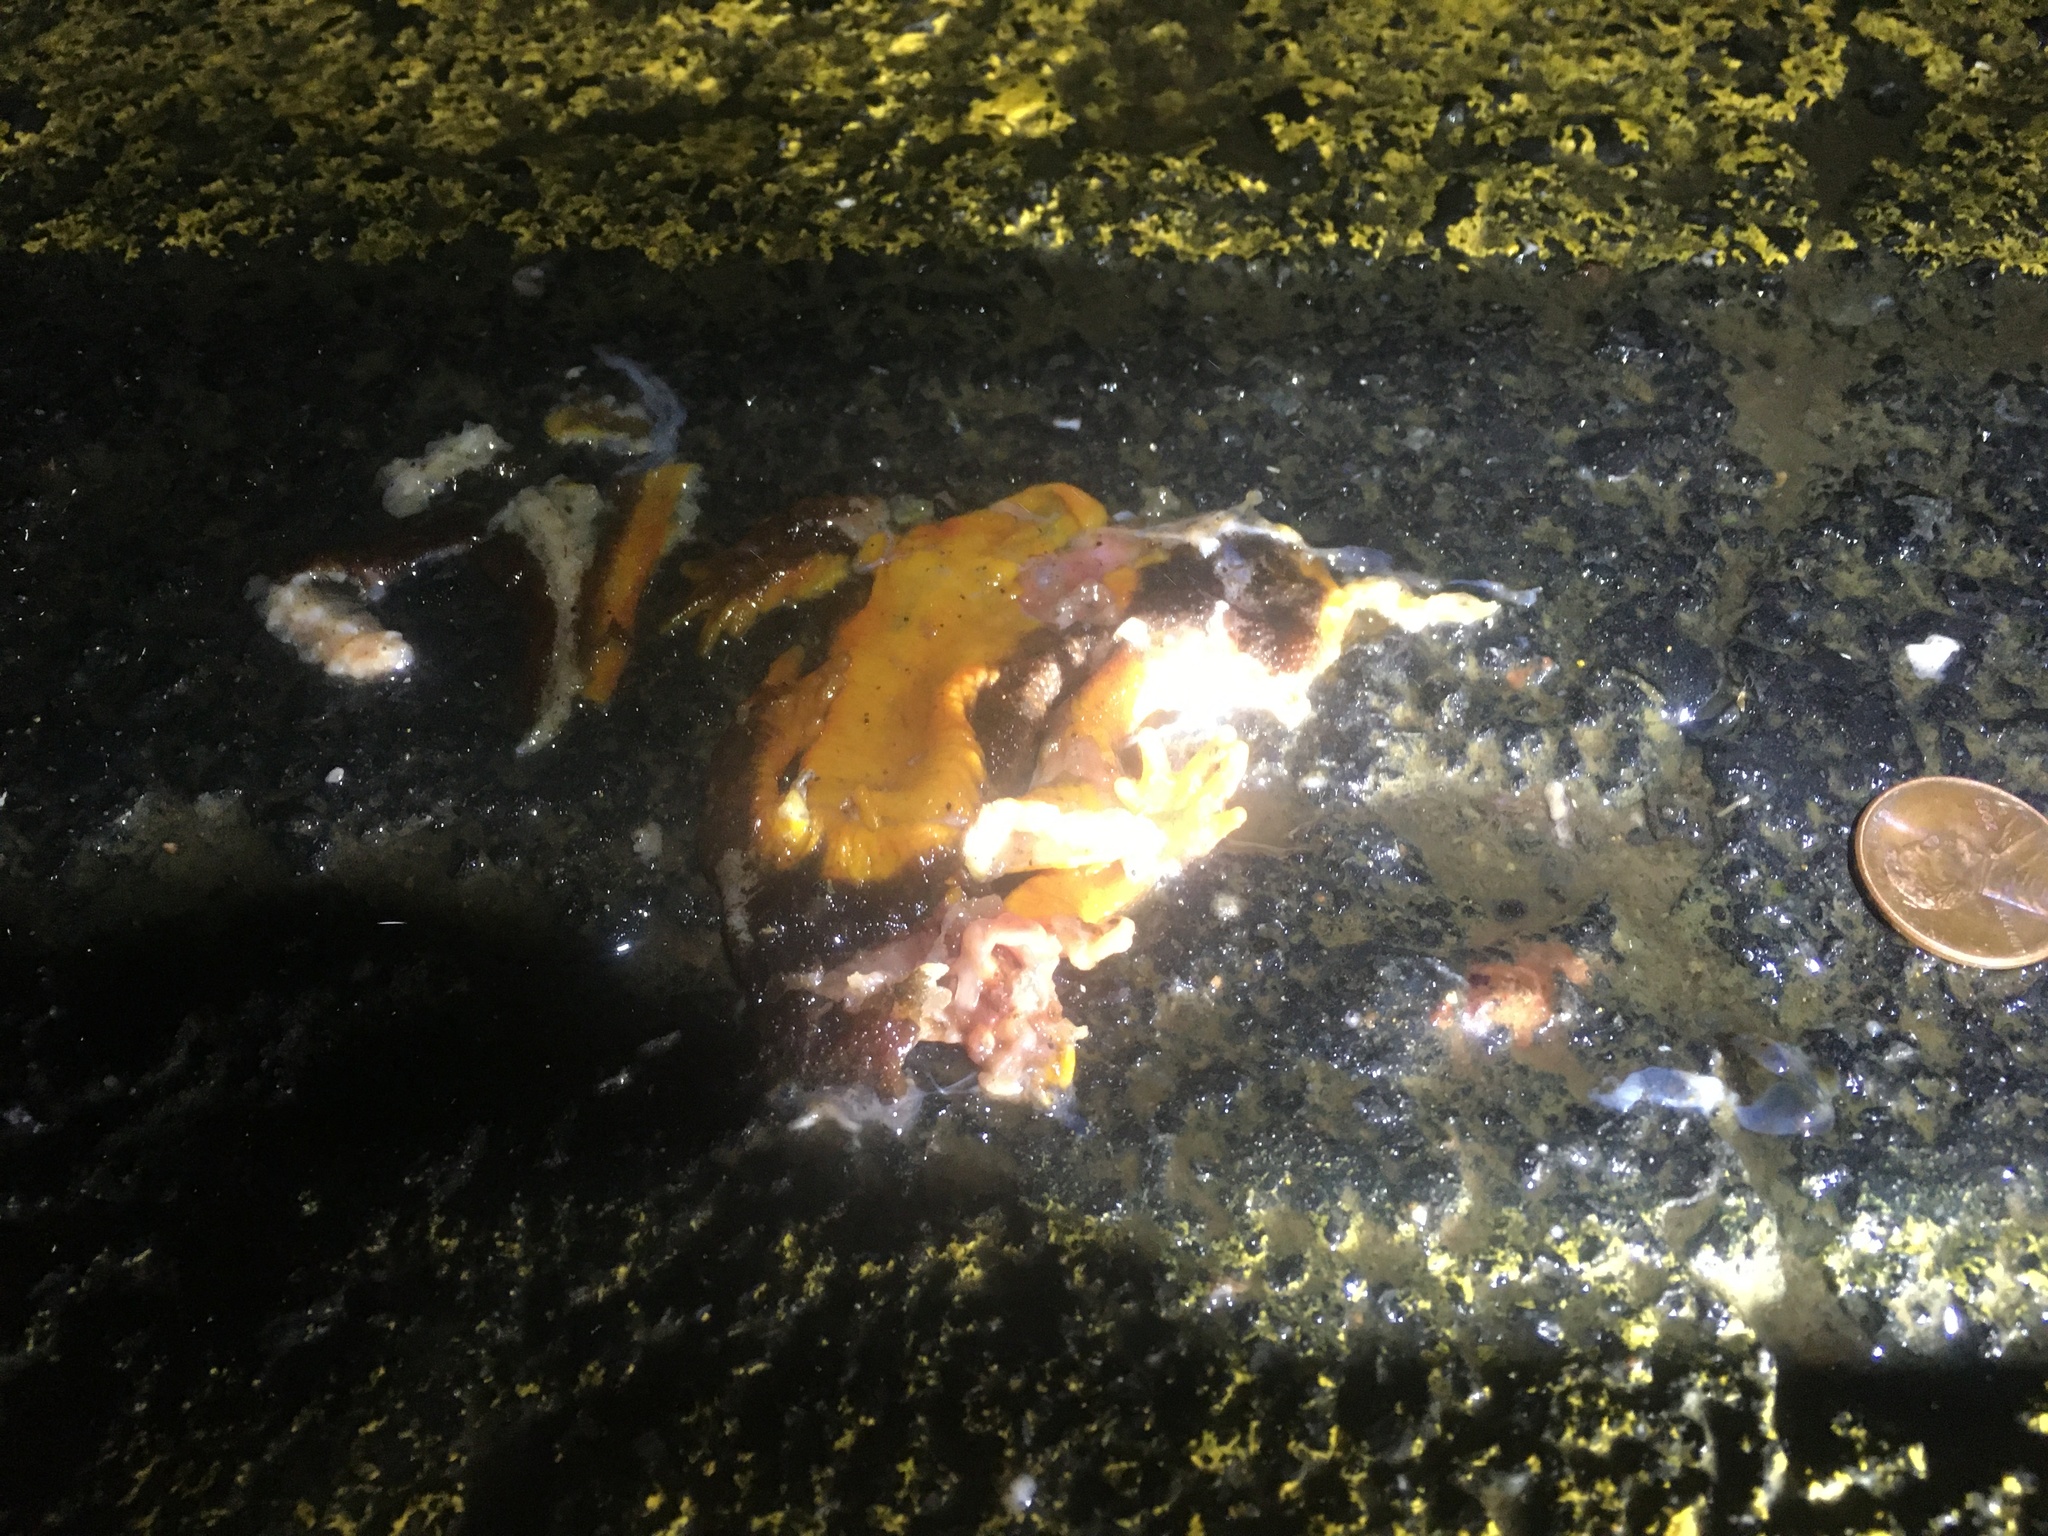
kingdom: Animalia
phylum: Chordata
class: Amphibia
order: Caudata
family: Salamandridae
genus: Taricha
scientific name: Taricha
